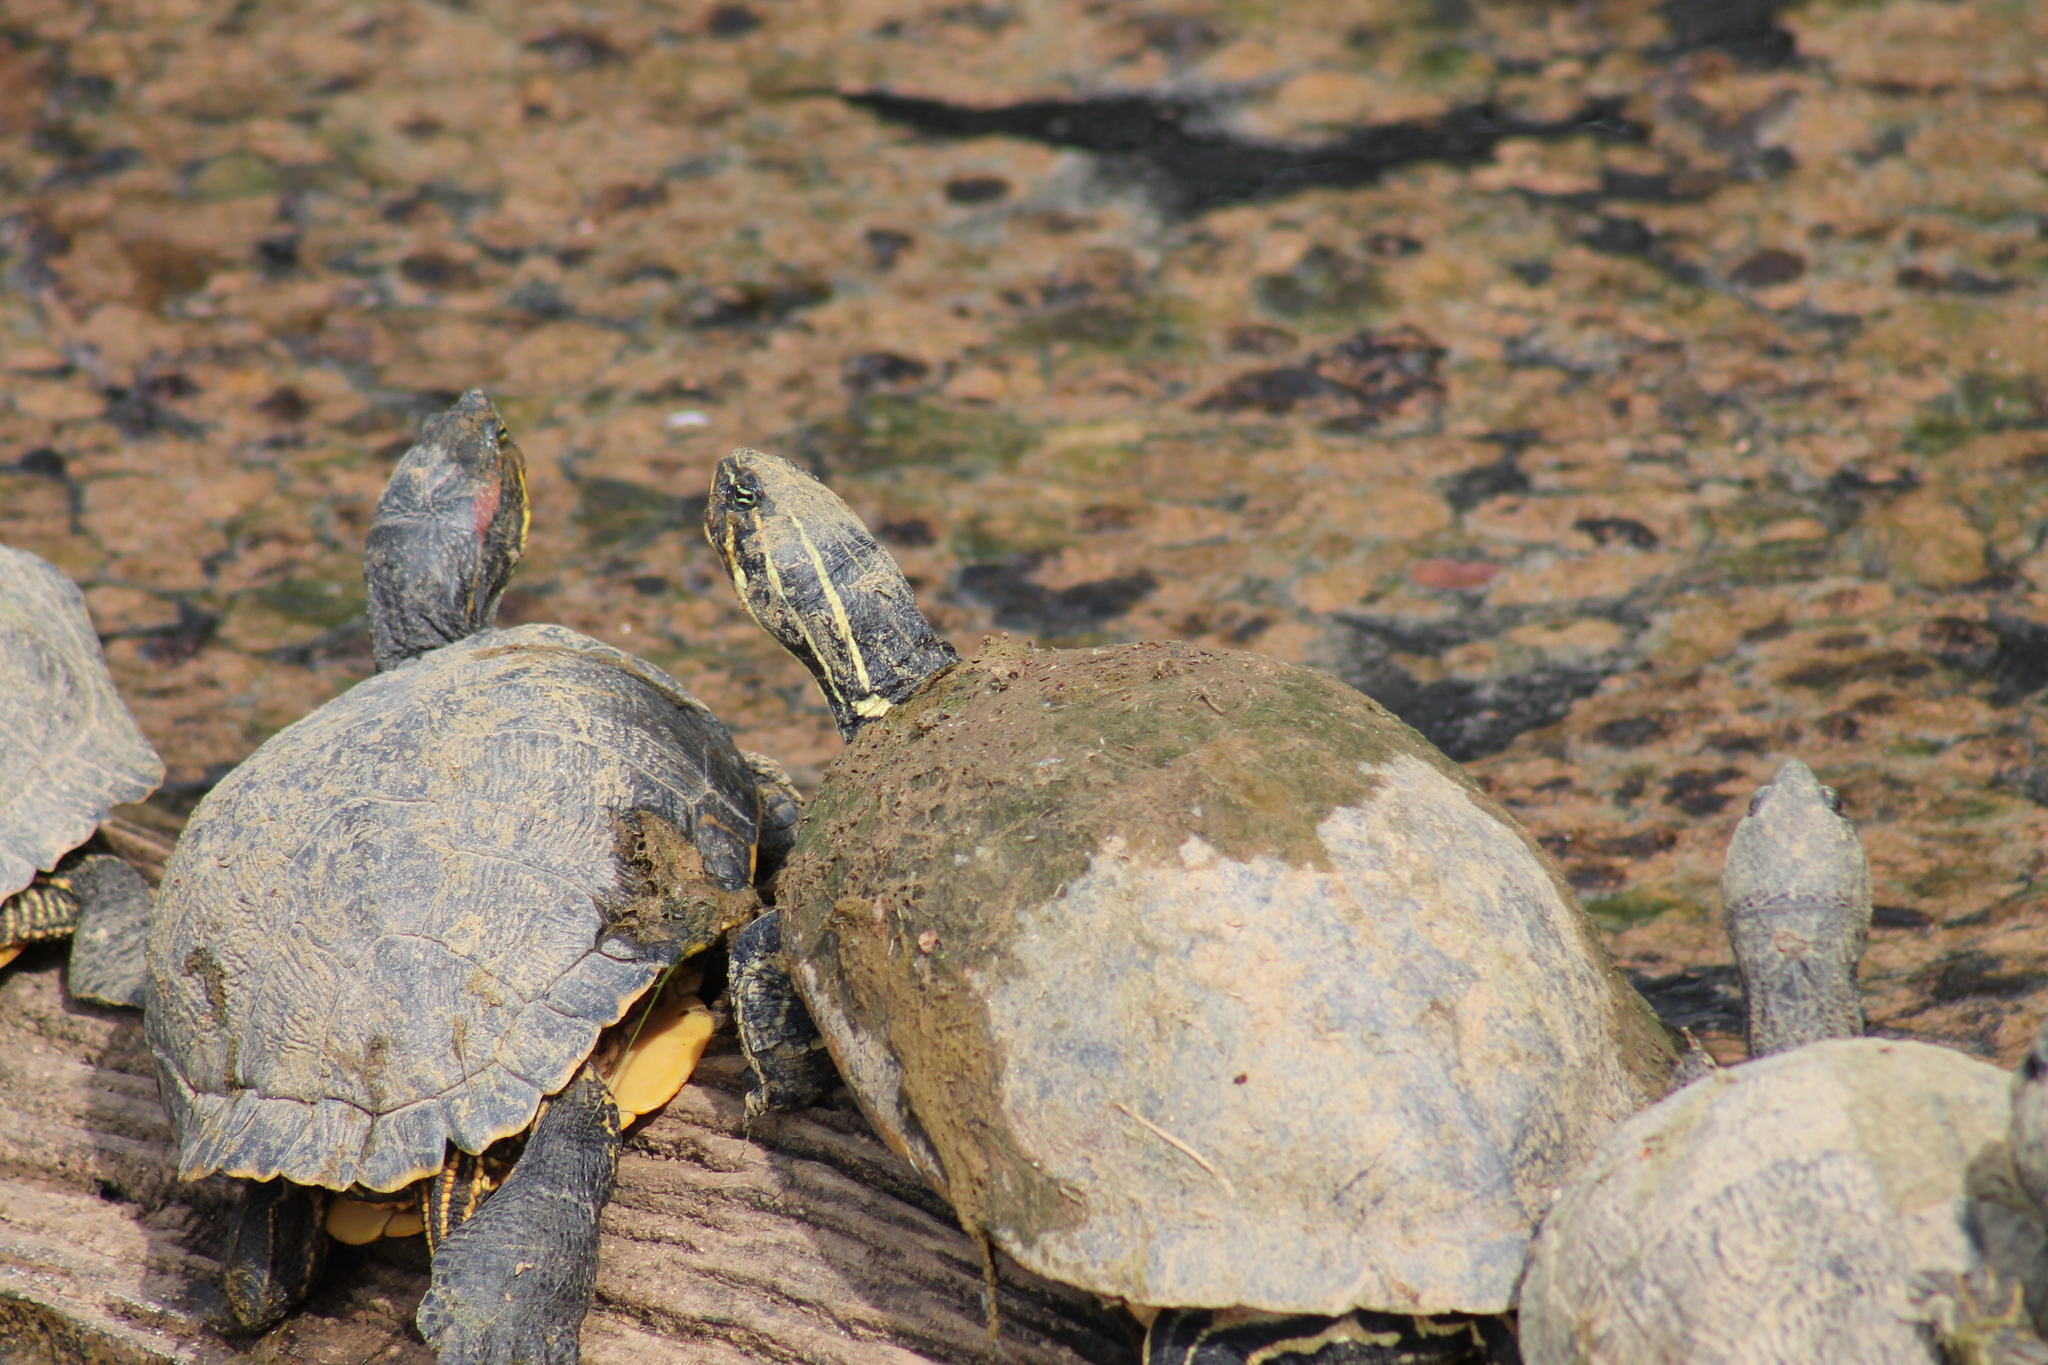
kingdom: Animalia
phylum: Chordata
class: Testudines
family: Emydidae
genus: Pseudemys
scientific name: Pseudemys peninsularis
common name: Peninsula cooter
